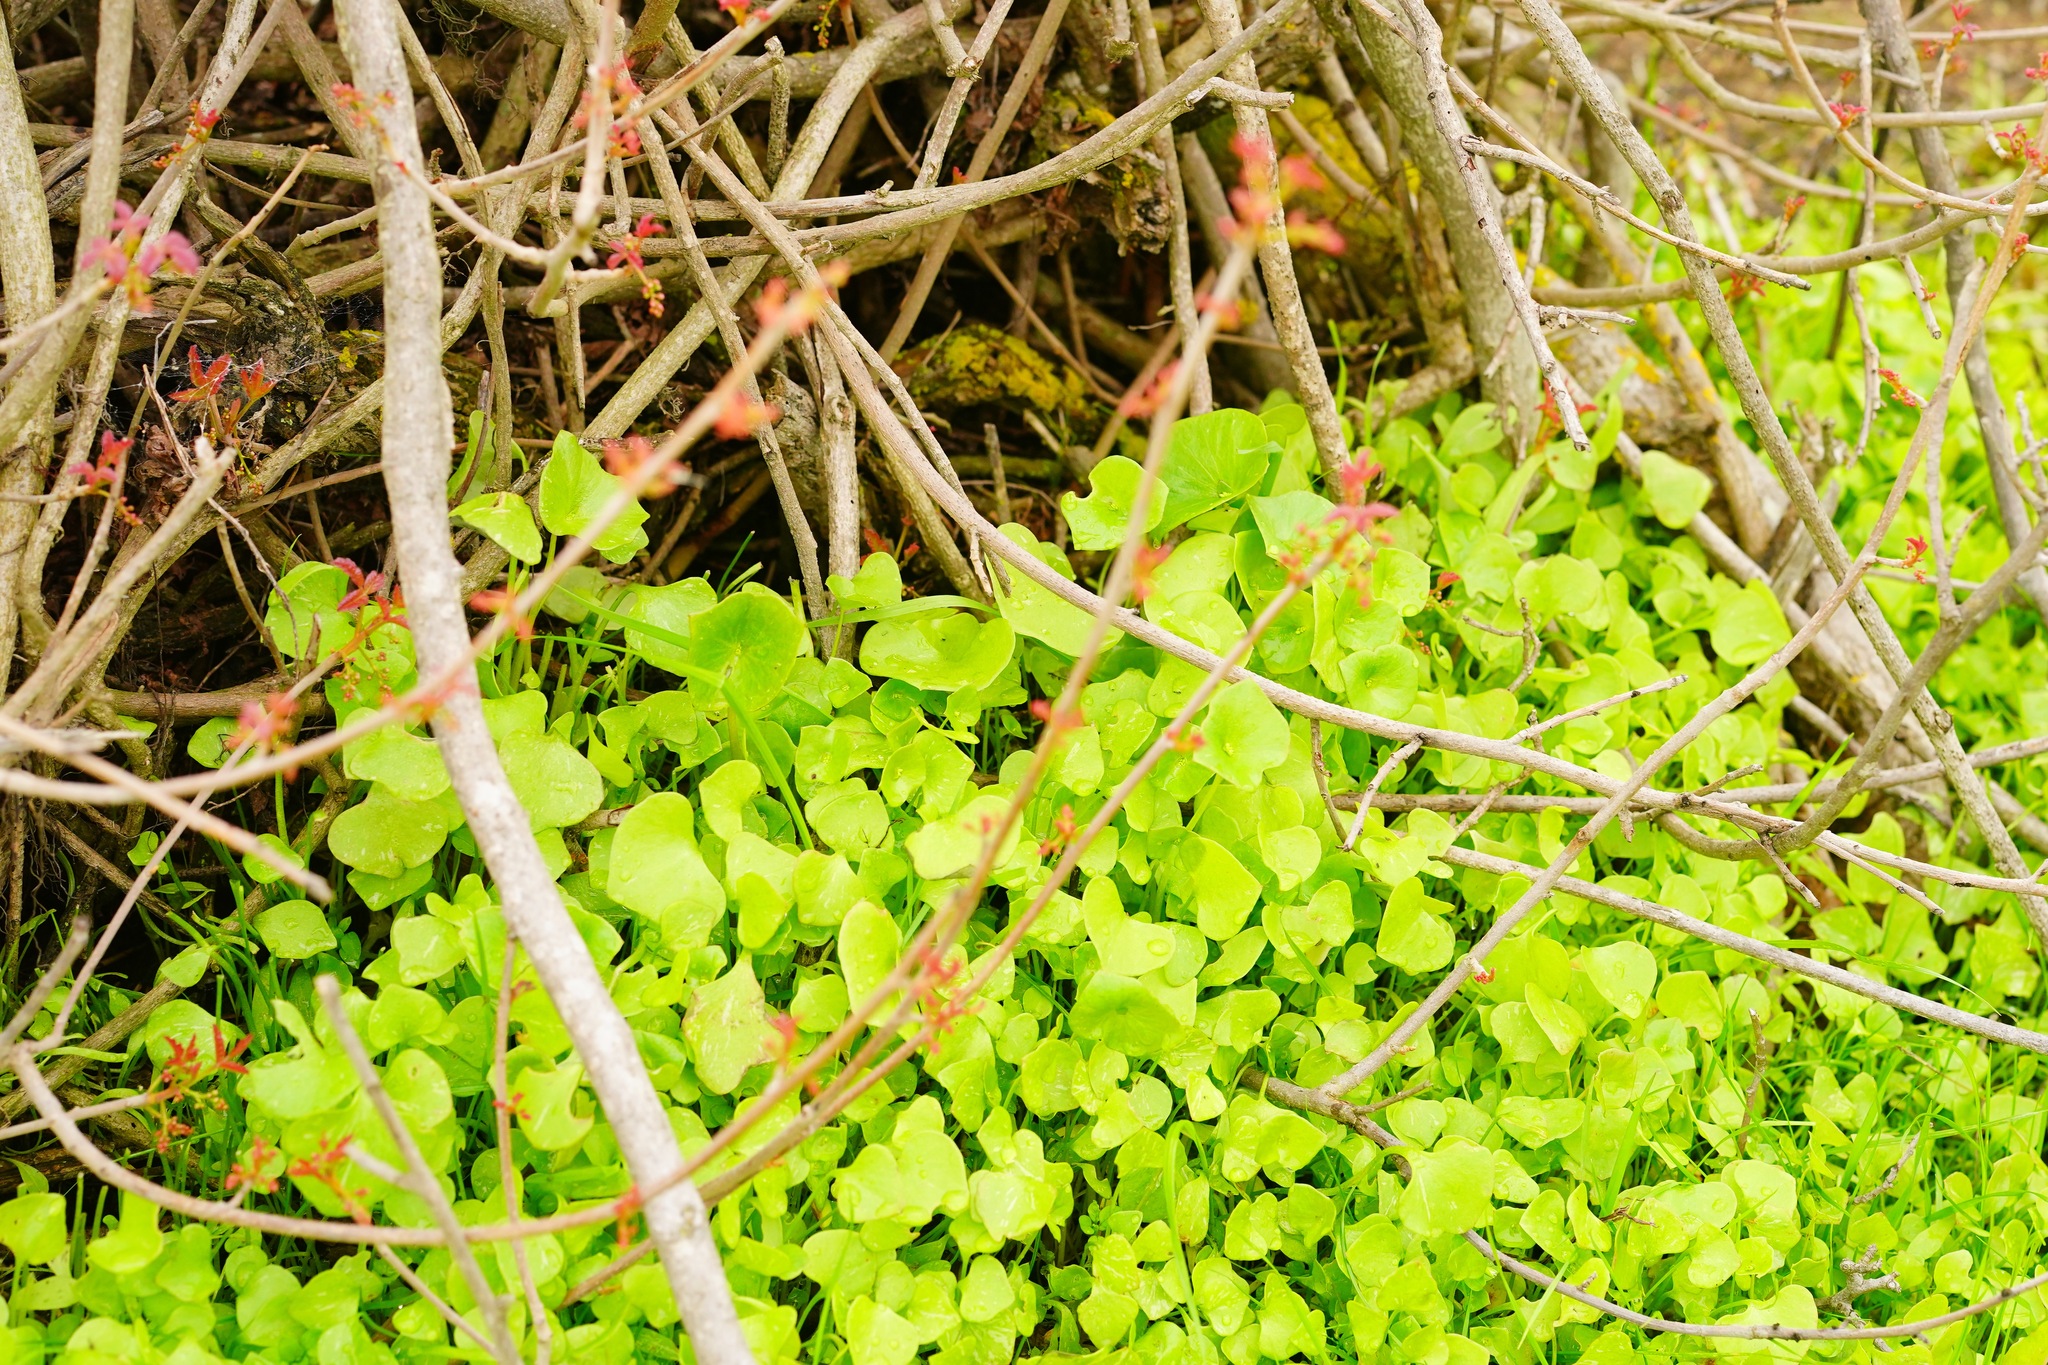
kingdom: Plantae
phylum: Tracheophyta
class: Magnoliopsida
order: Caryophyllales
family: Montiaceae
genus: Claytonia
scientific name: Claytonia perfoliata
